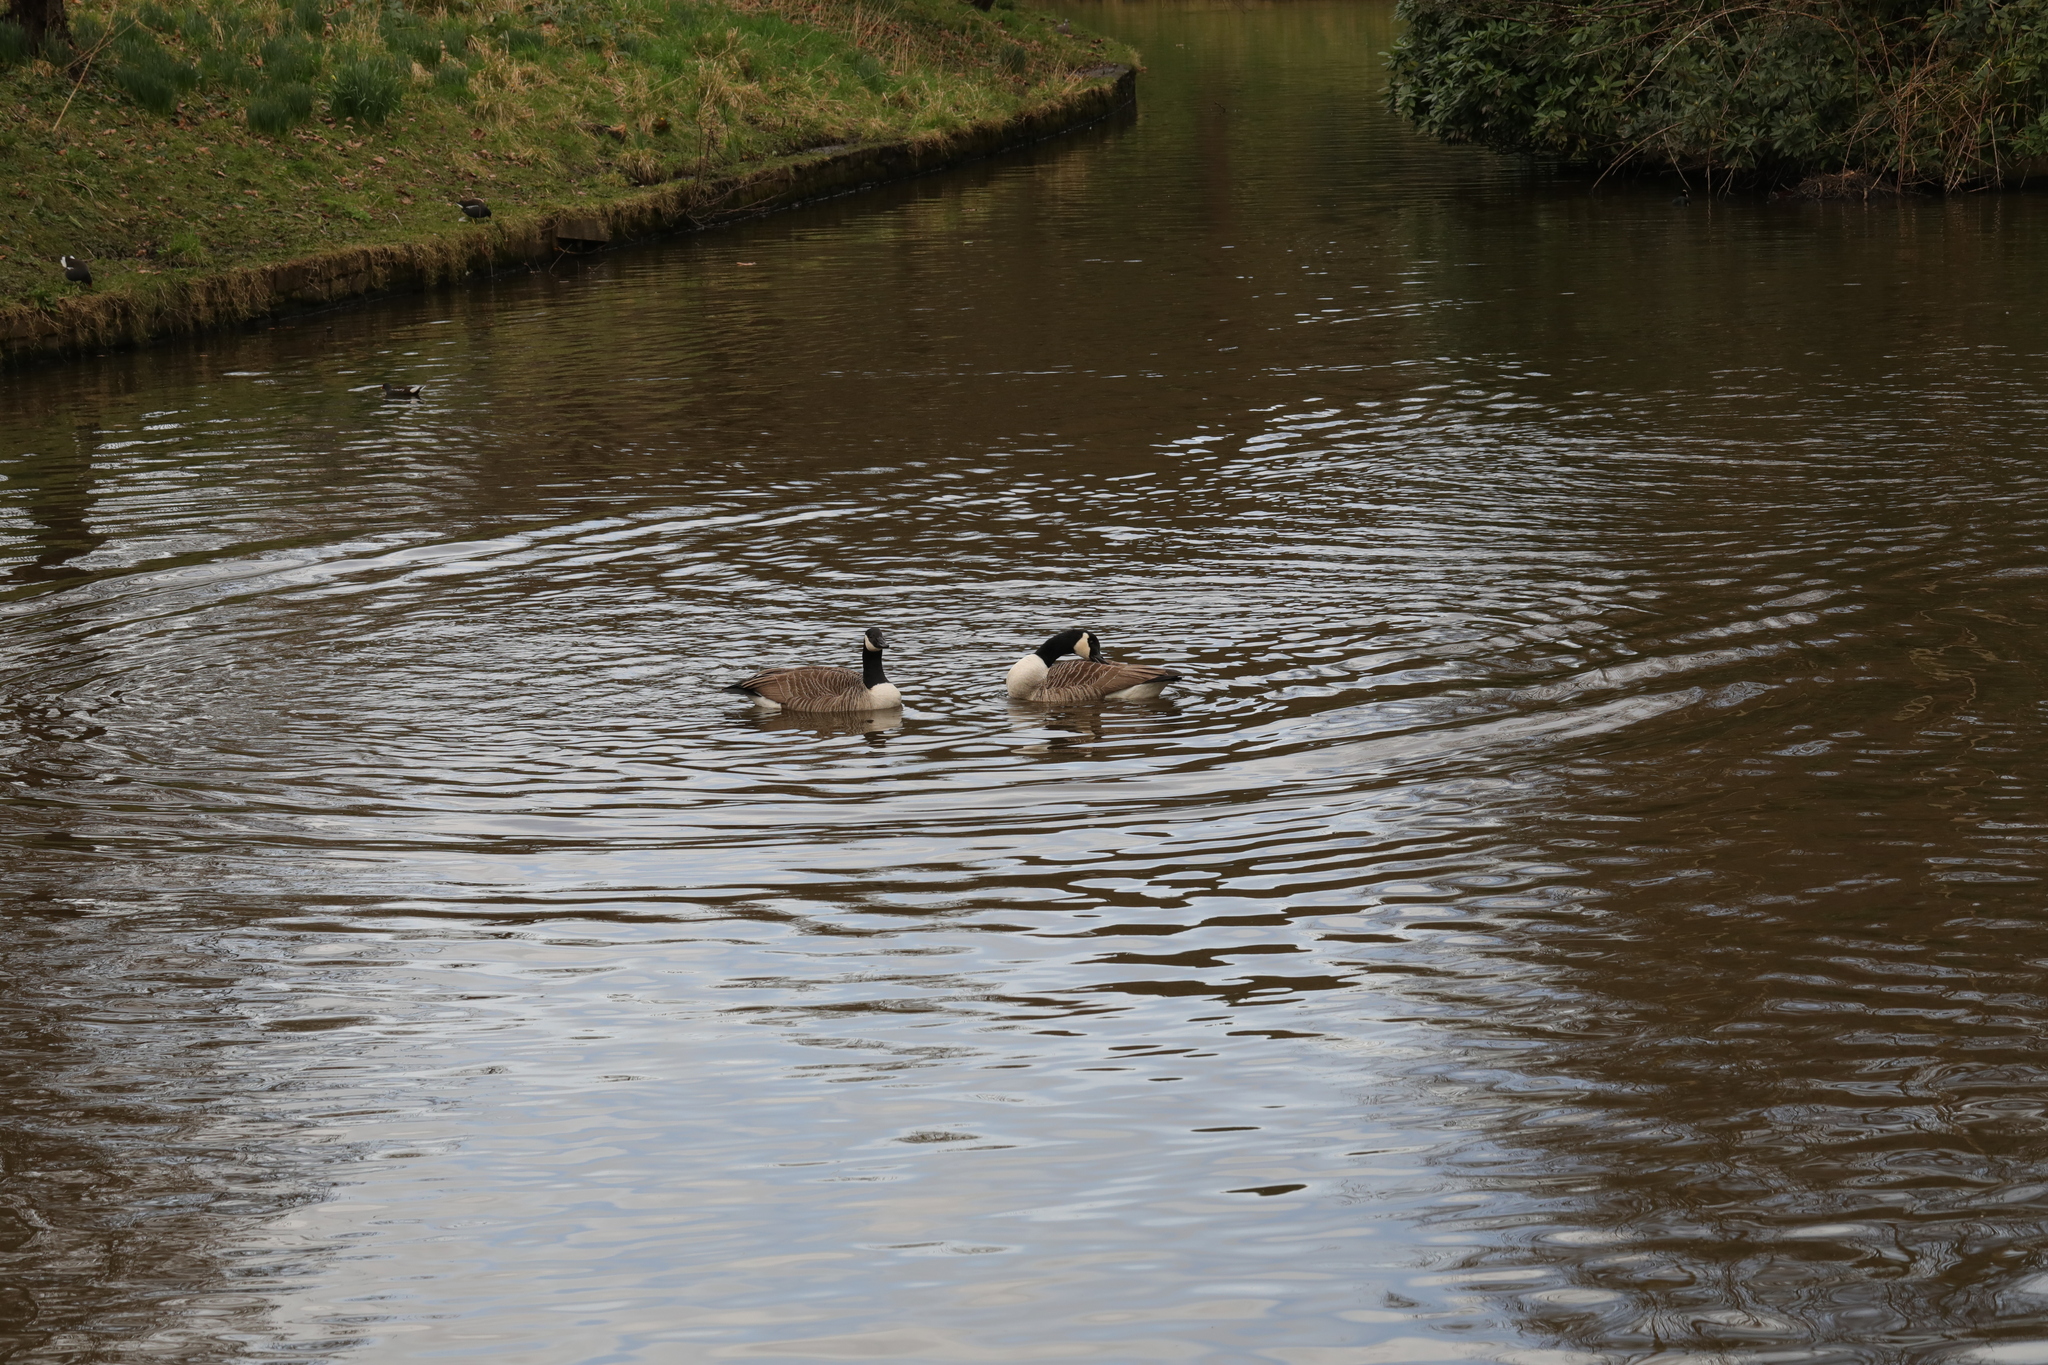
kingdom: Animalia
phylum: Chordata
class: Aves
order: Anseriformes
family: Anatidae
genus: Branta
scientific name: Branta canadensis
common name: Canada goose
